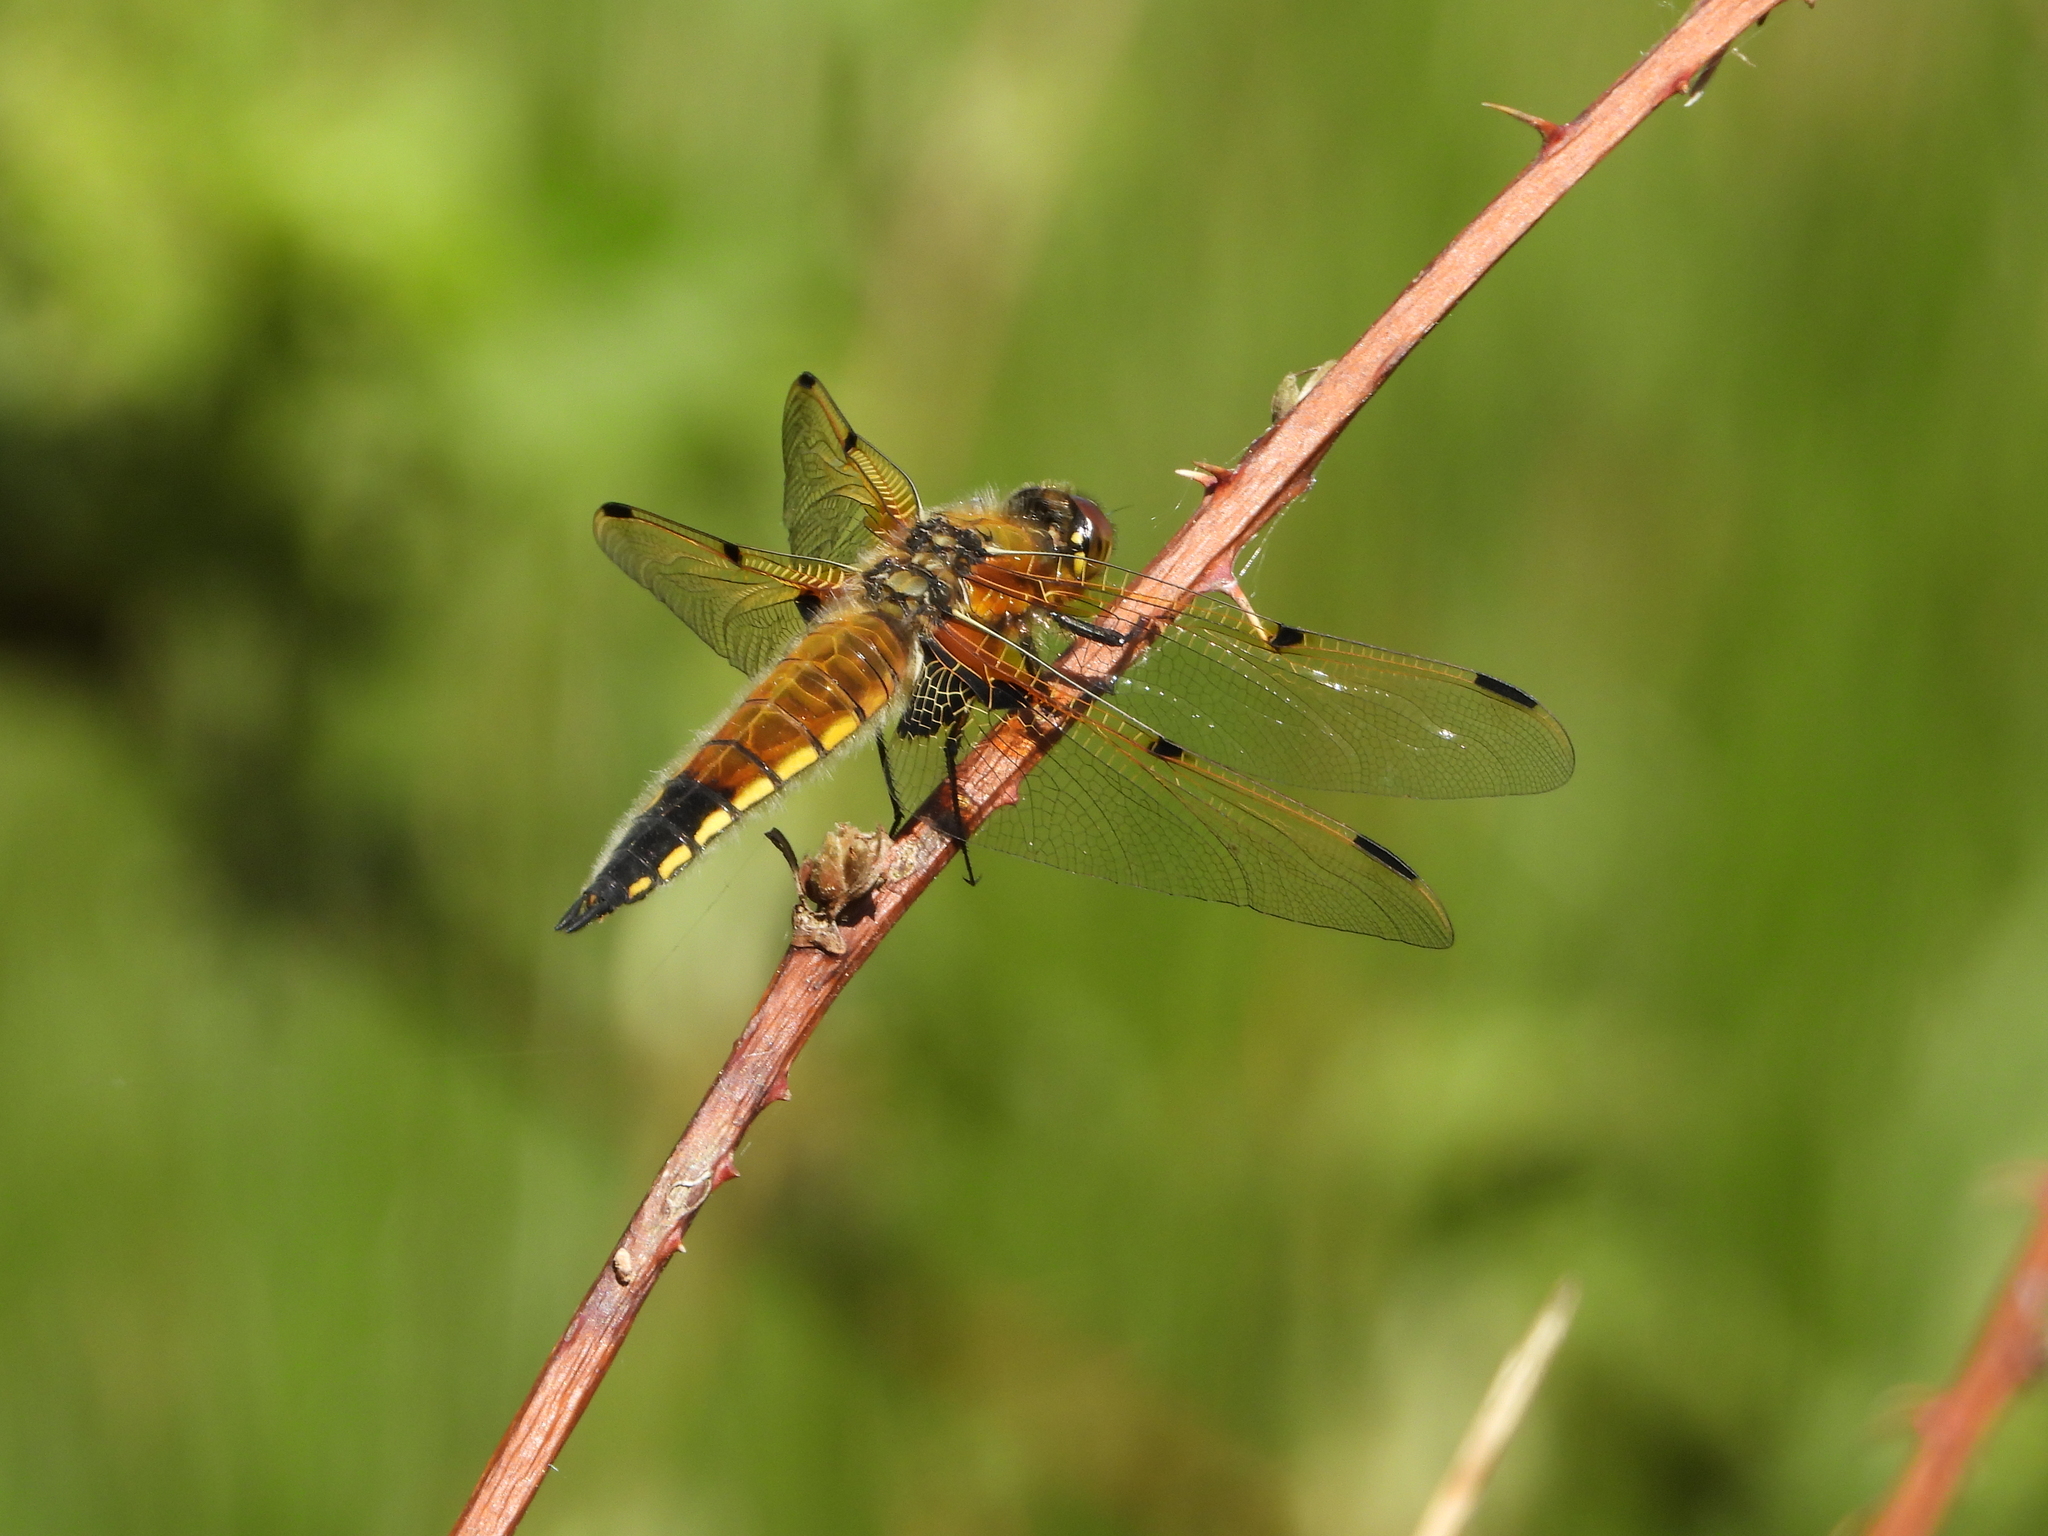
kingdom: Animalia
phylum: Arthropoda
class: Insecta
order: Odonata
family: Libellulidae
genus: Libellula
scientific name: Libellula quadrimaculata
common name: Four-spotted chaser
